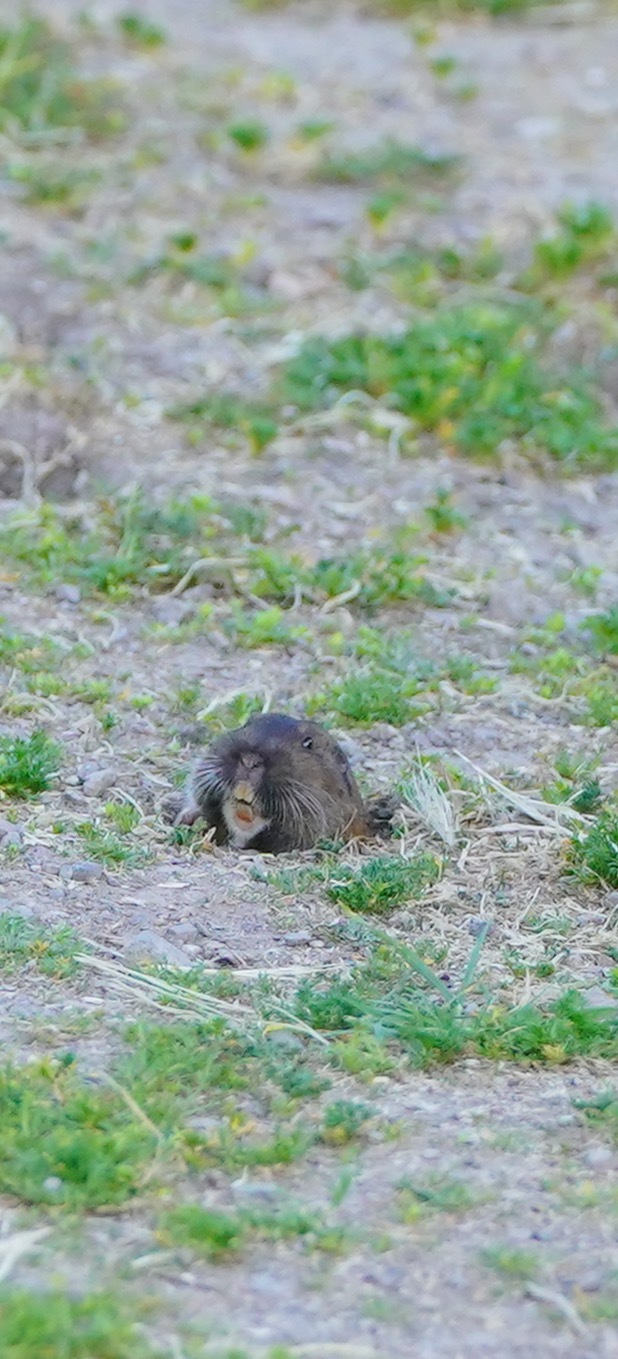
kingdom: Animalia
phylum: Chordata
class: Mammalia
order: Rodentia
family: Geomyidae
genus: Thomomys
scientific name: Thomomys bottae
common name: Botta's pocket gopher
